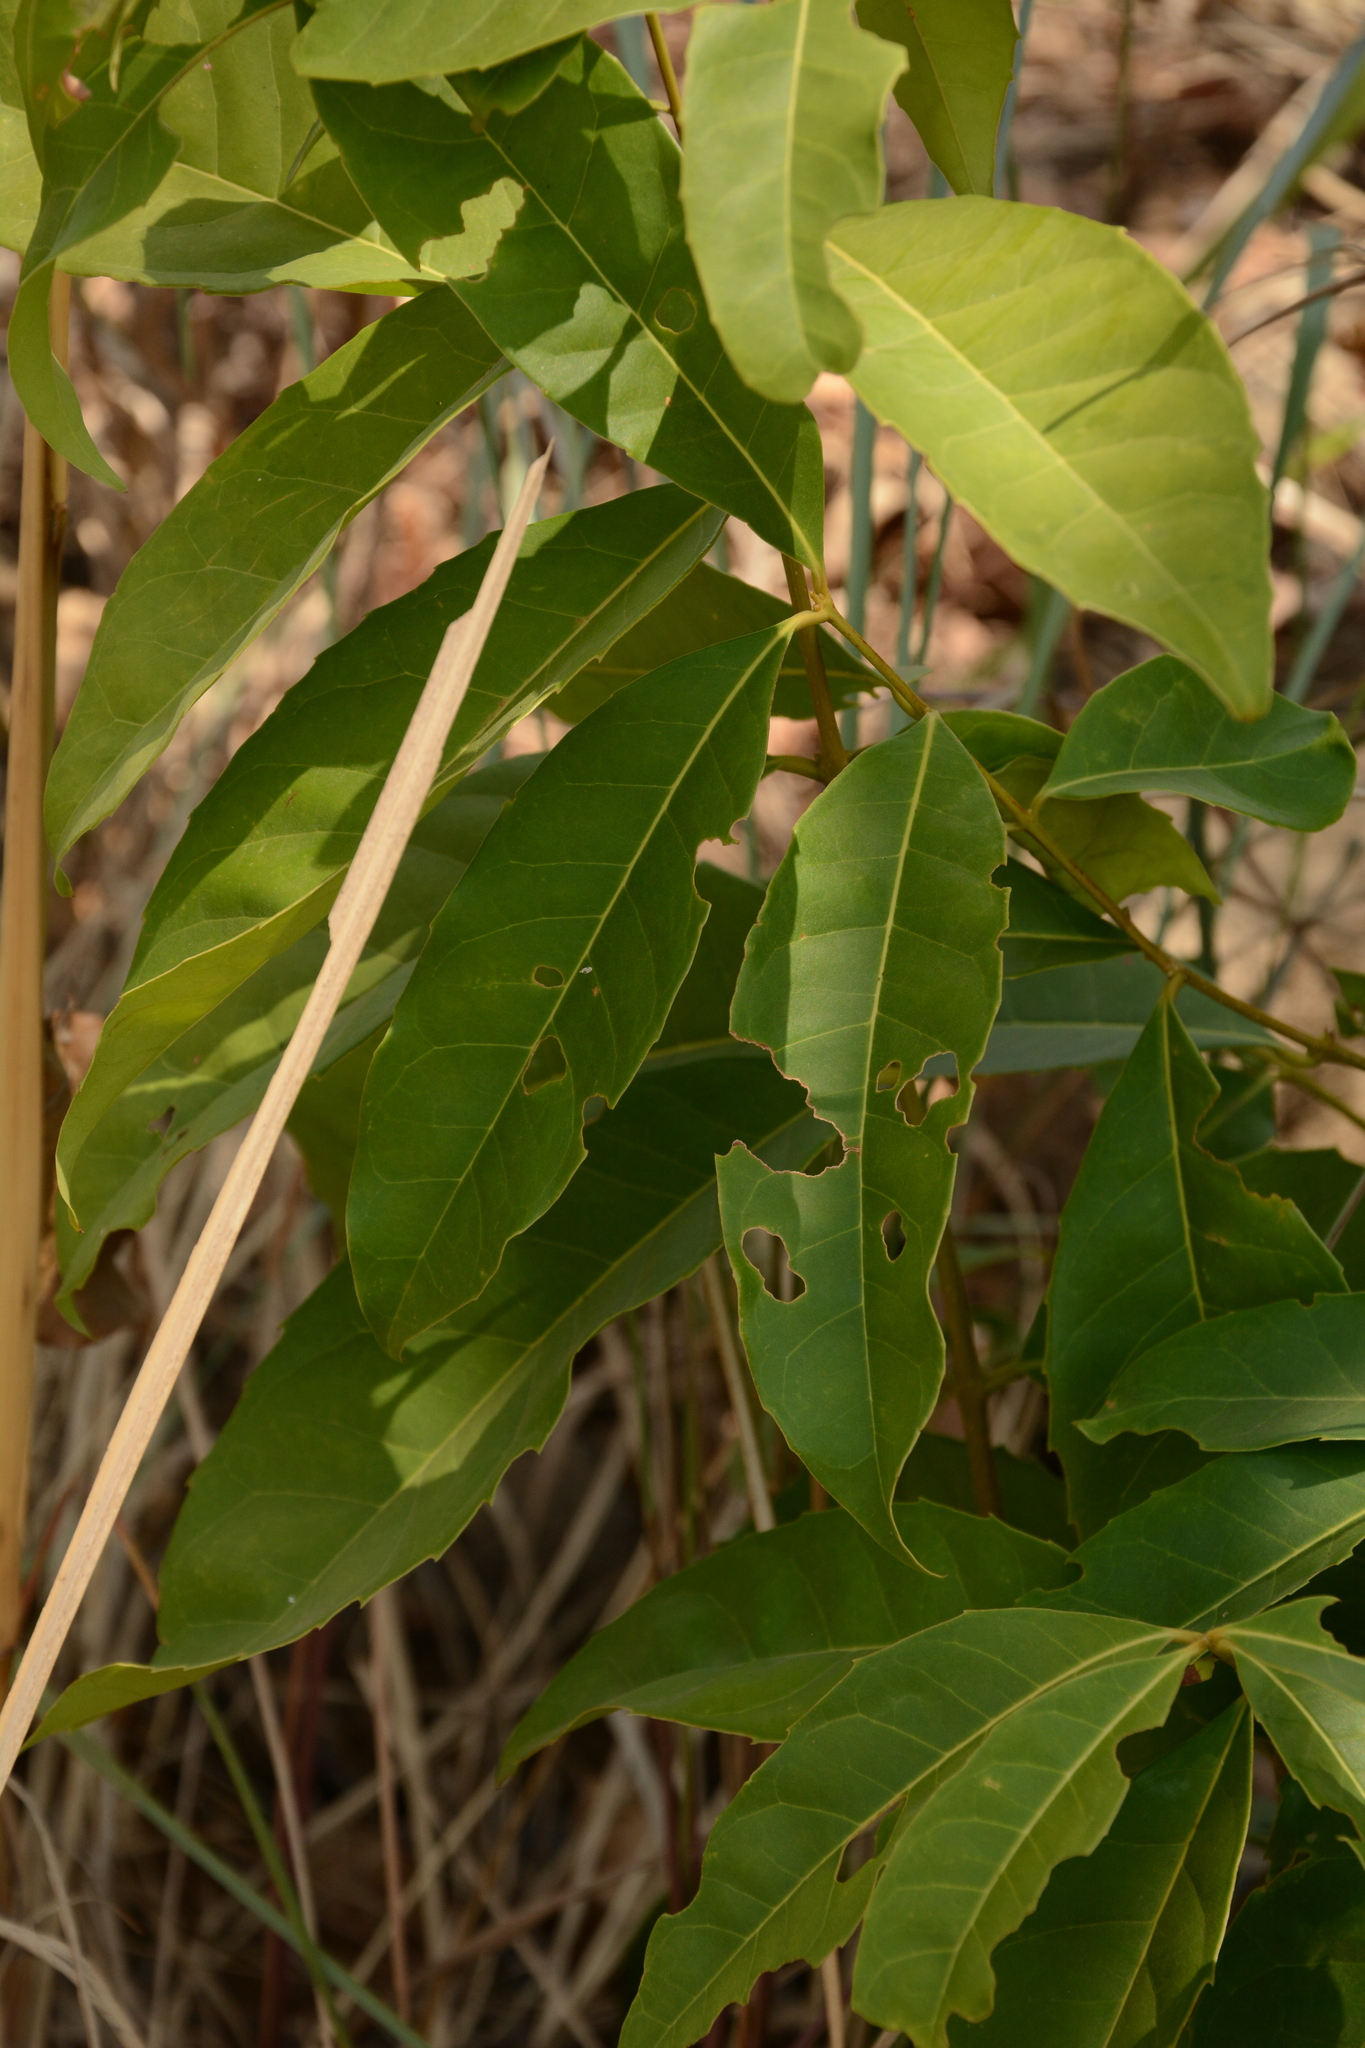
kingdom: Plantae
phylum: Tracheophyta
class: Magnoliopsida
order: Lamiales
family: Oleaceae
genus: Tetrapilus
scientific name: Tetrapilus dioicus
